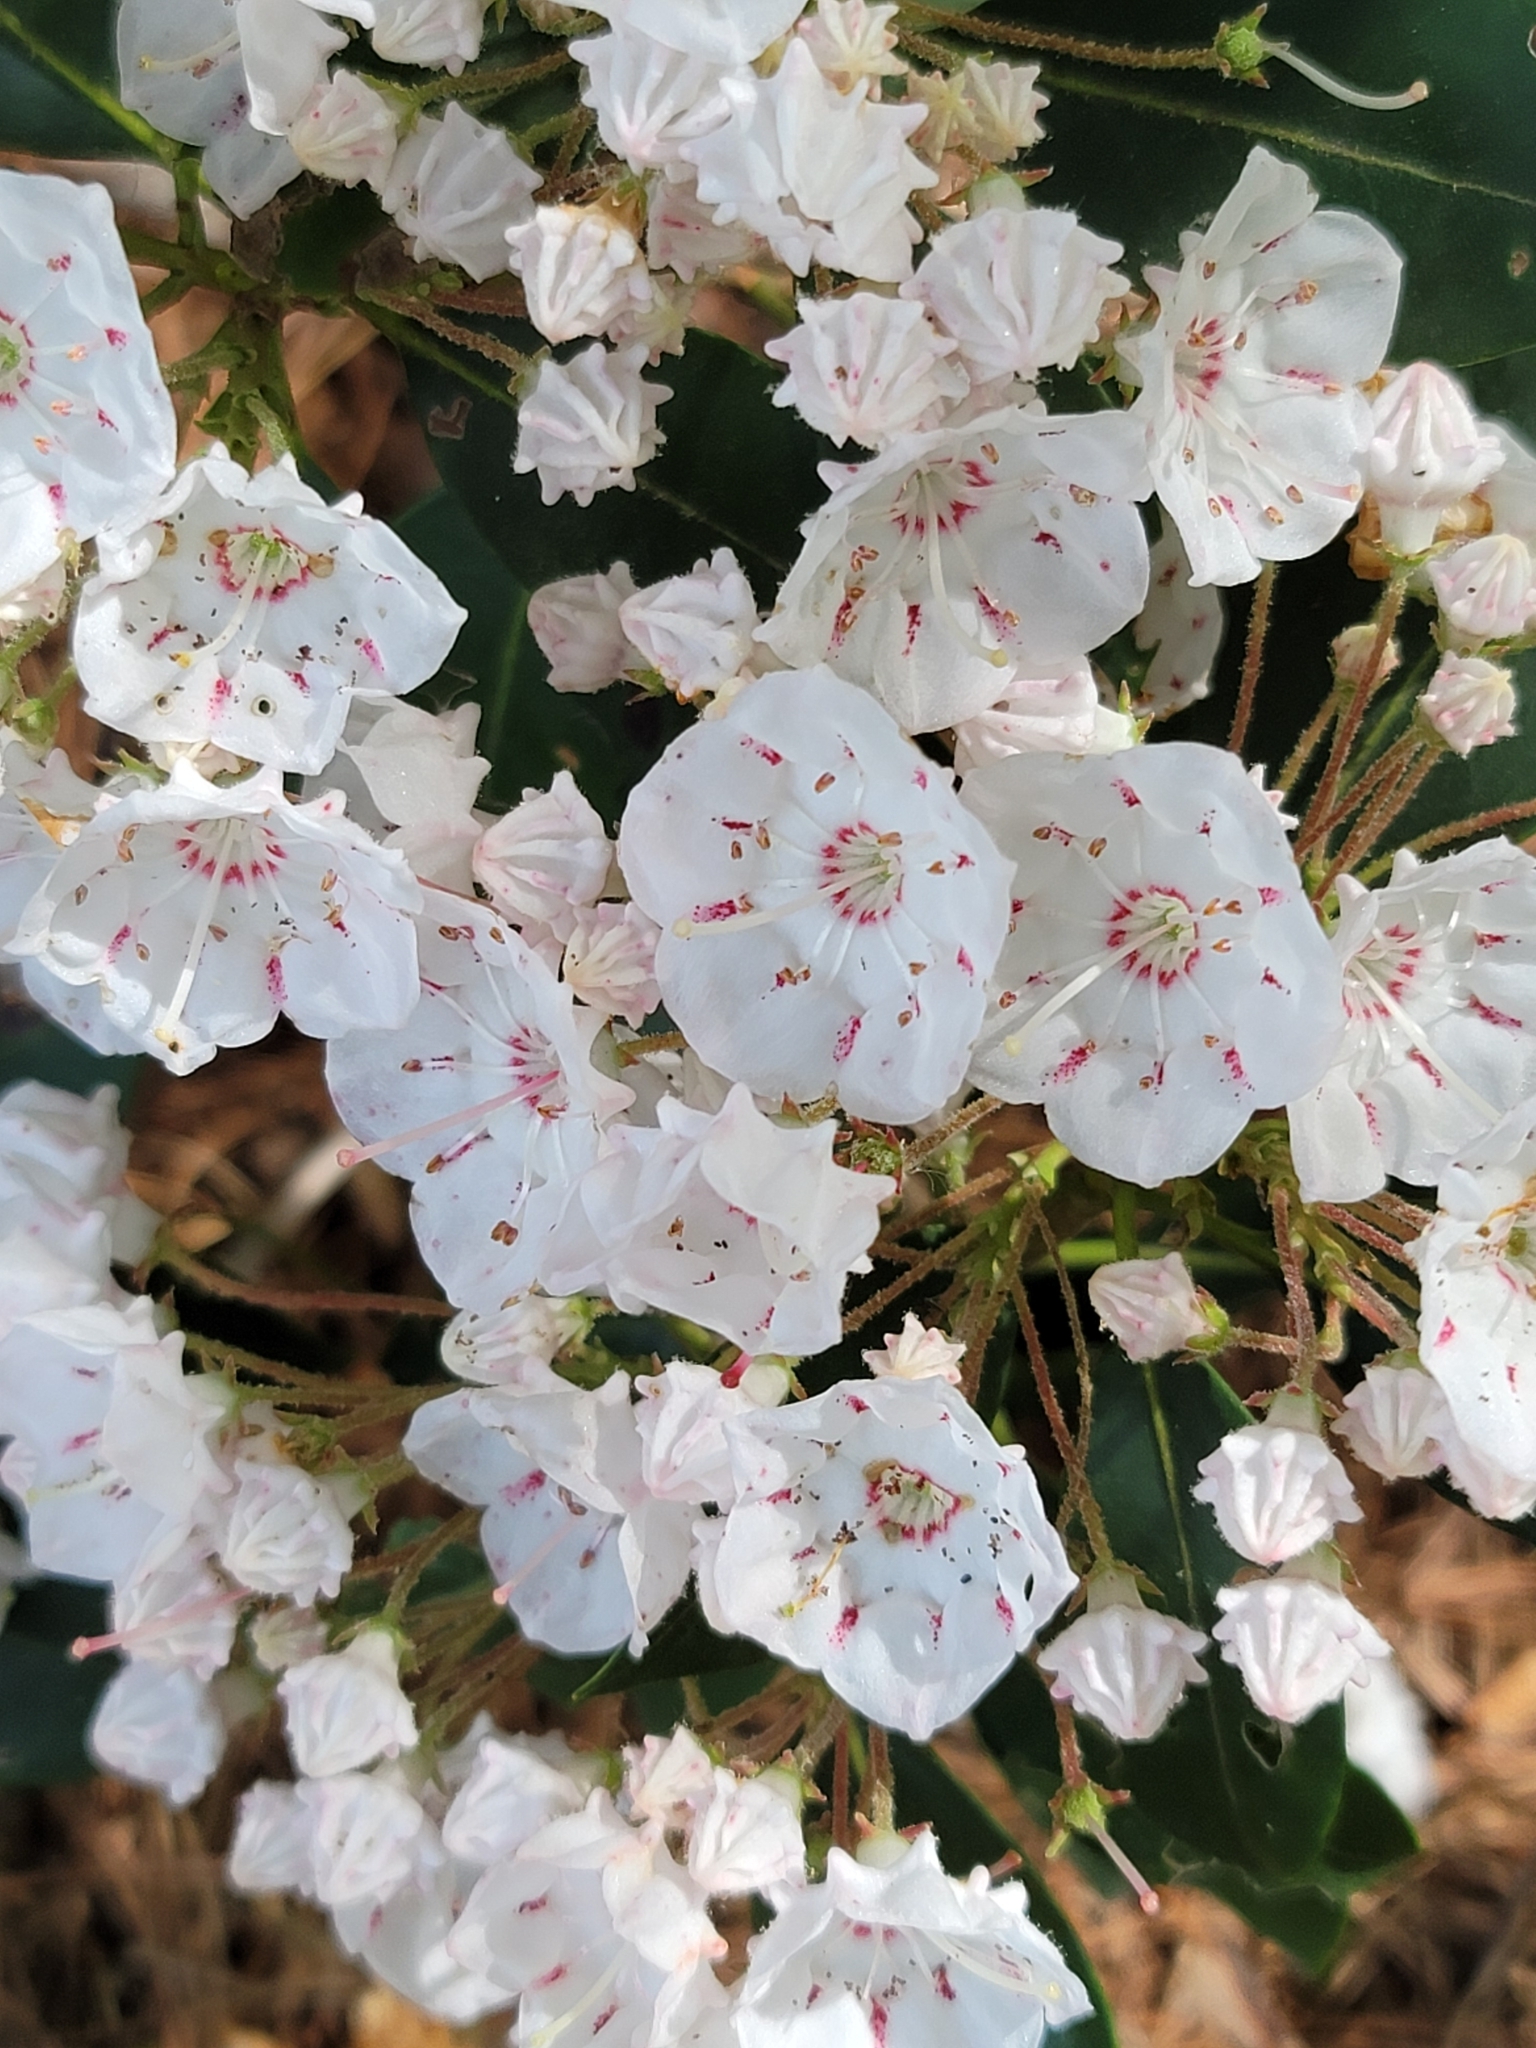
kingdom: Plantae
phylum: Tracheophyta
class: Magnoliopsida
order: Ericales
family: Ericaceae
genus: Kalmia
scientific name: Kalmia latifolia
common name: Mountain-laurel
